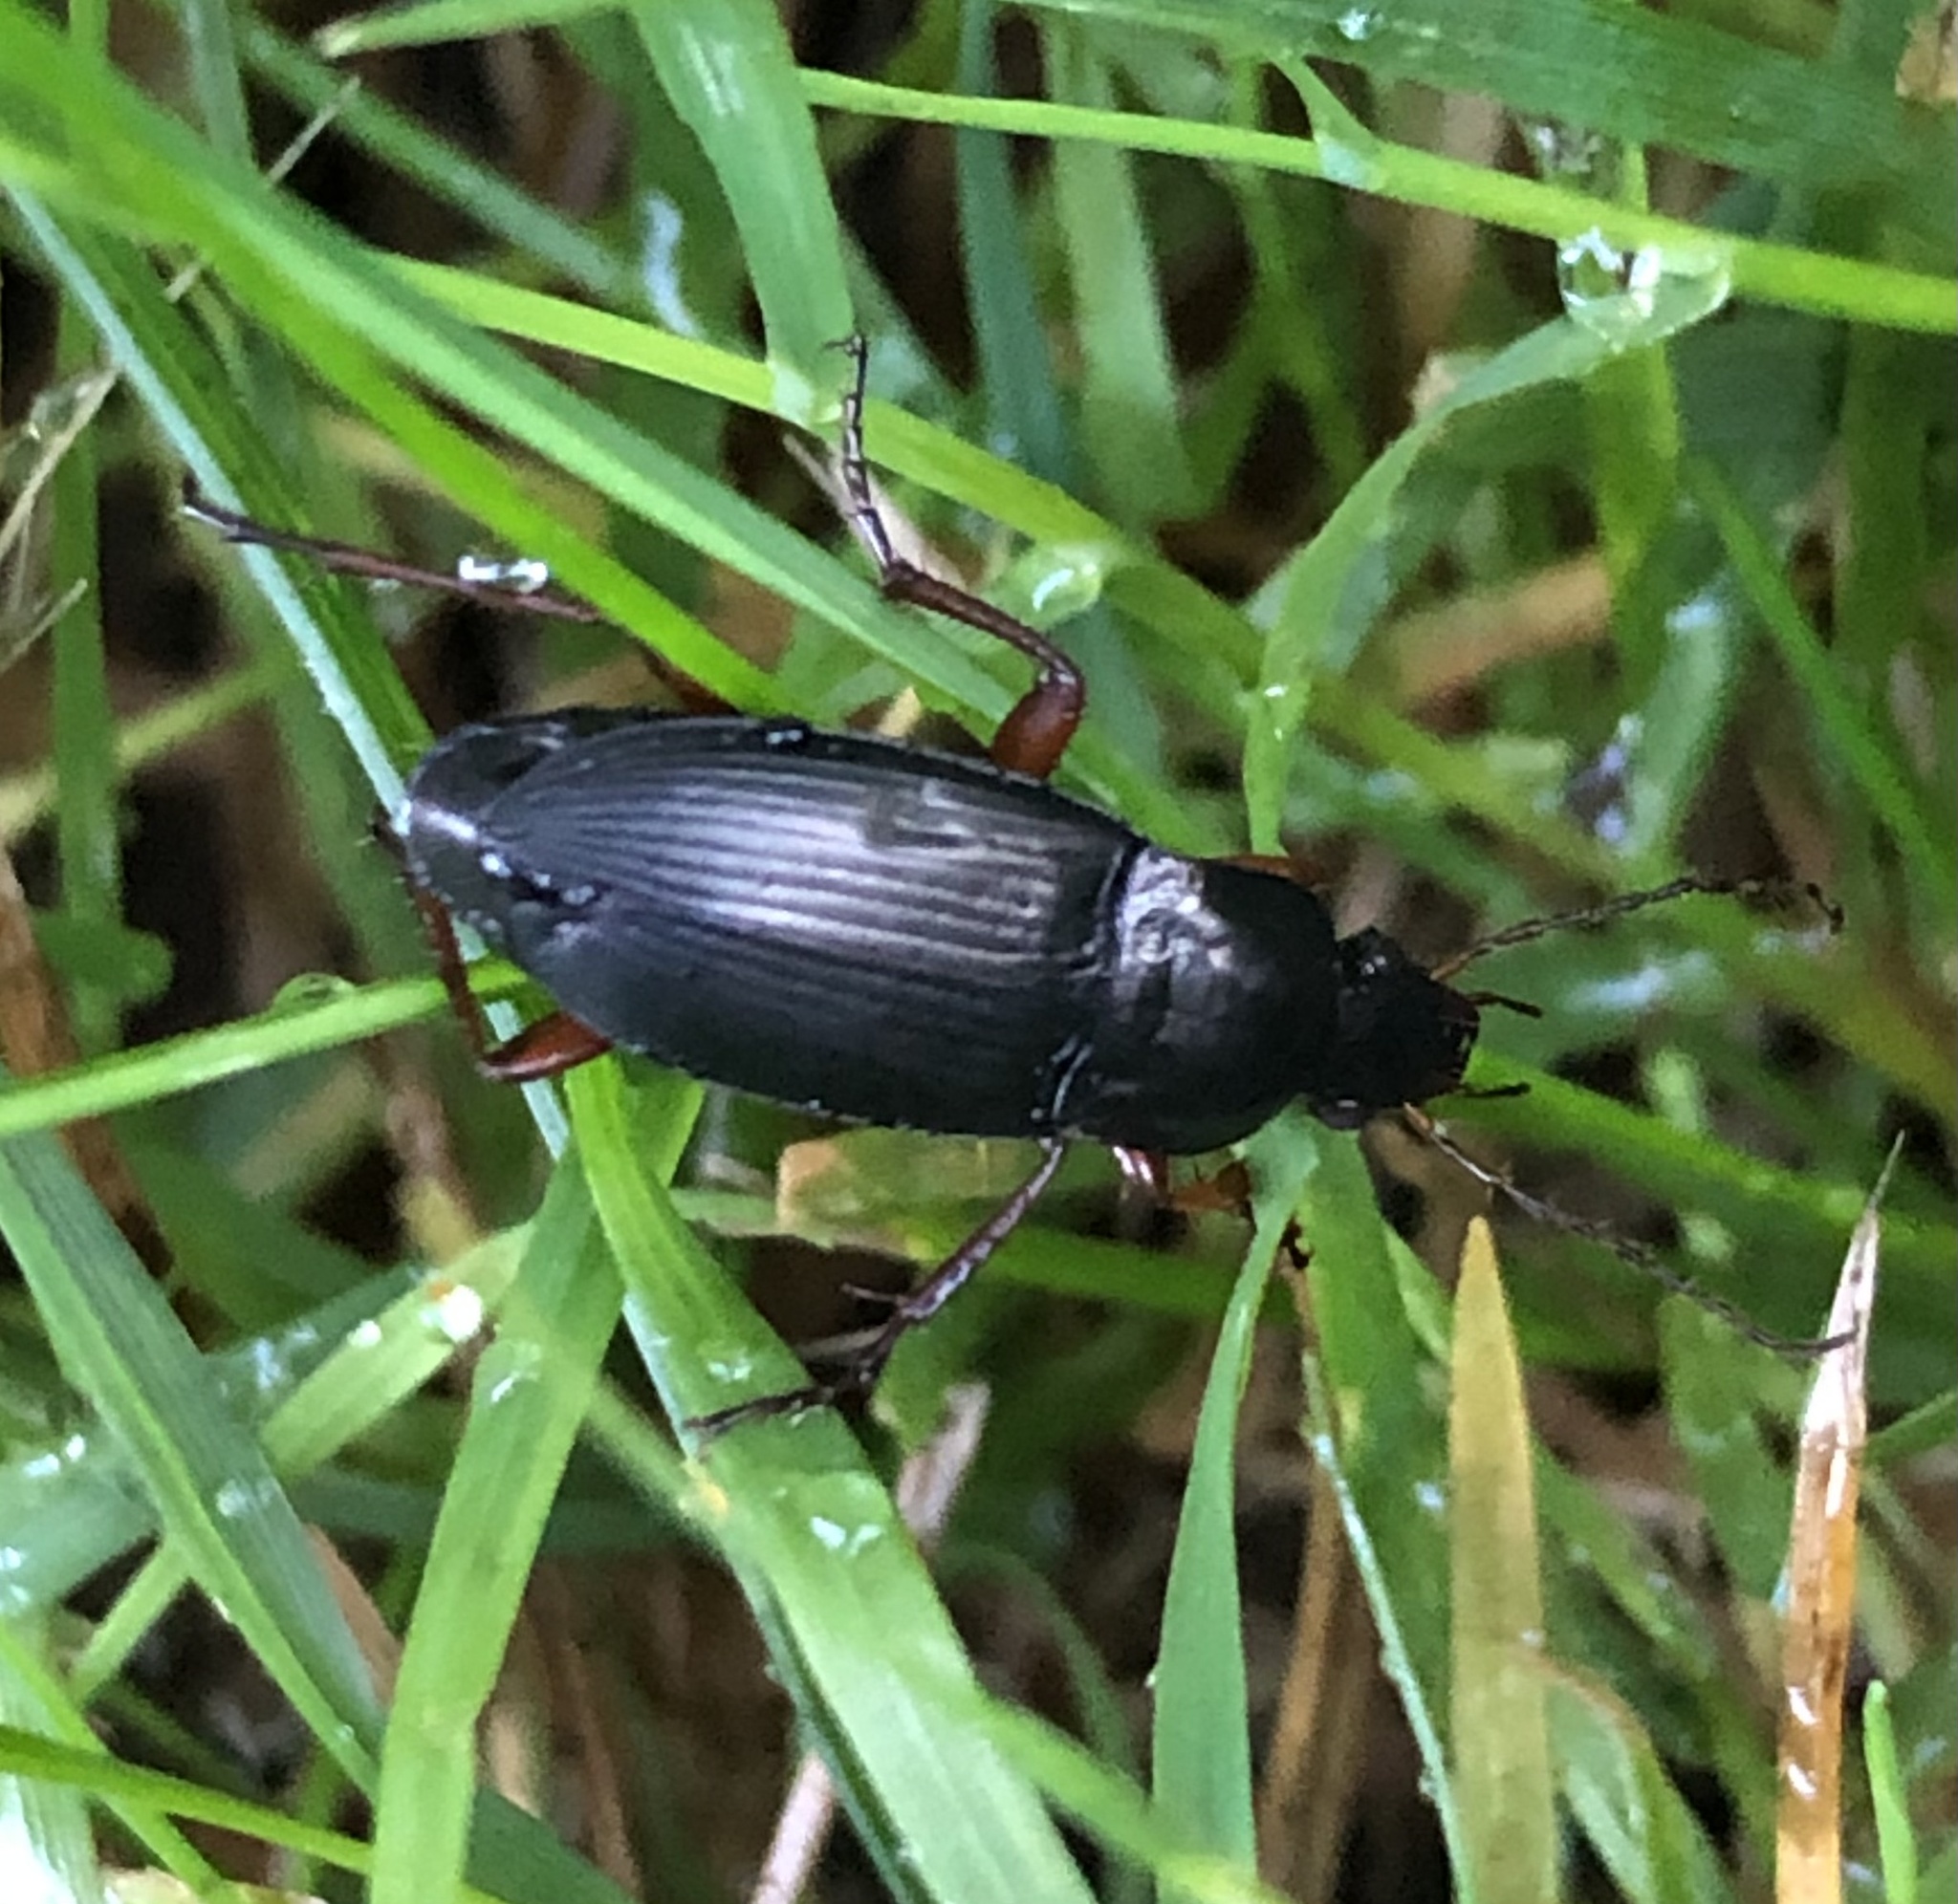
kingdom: Animalia
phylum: Arthropoda
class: Insecta
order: Coleoptera
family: Carabidae
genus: Calathus
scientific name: Calathus fuscipes
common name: Dark-footed harp ground beetle
